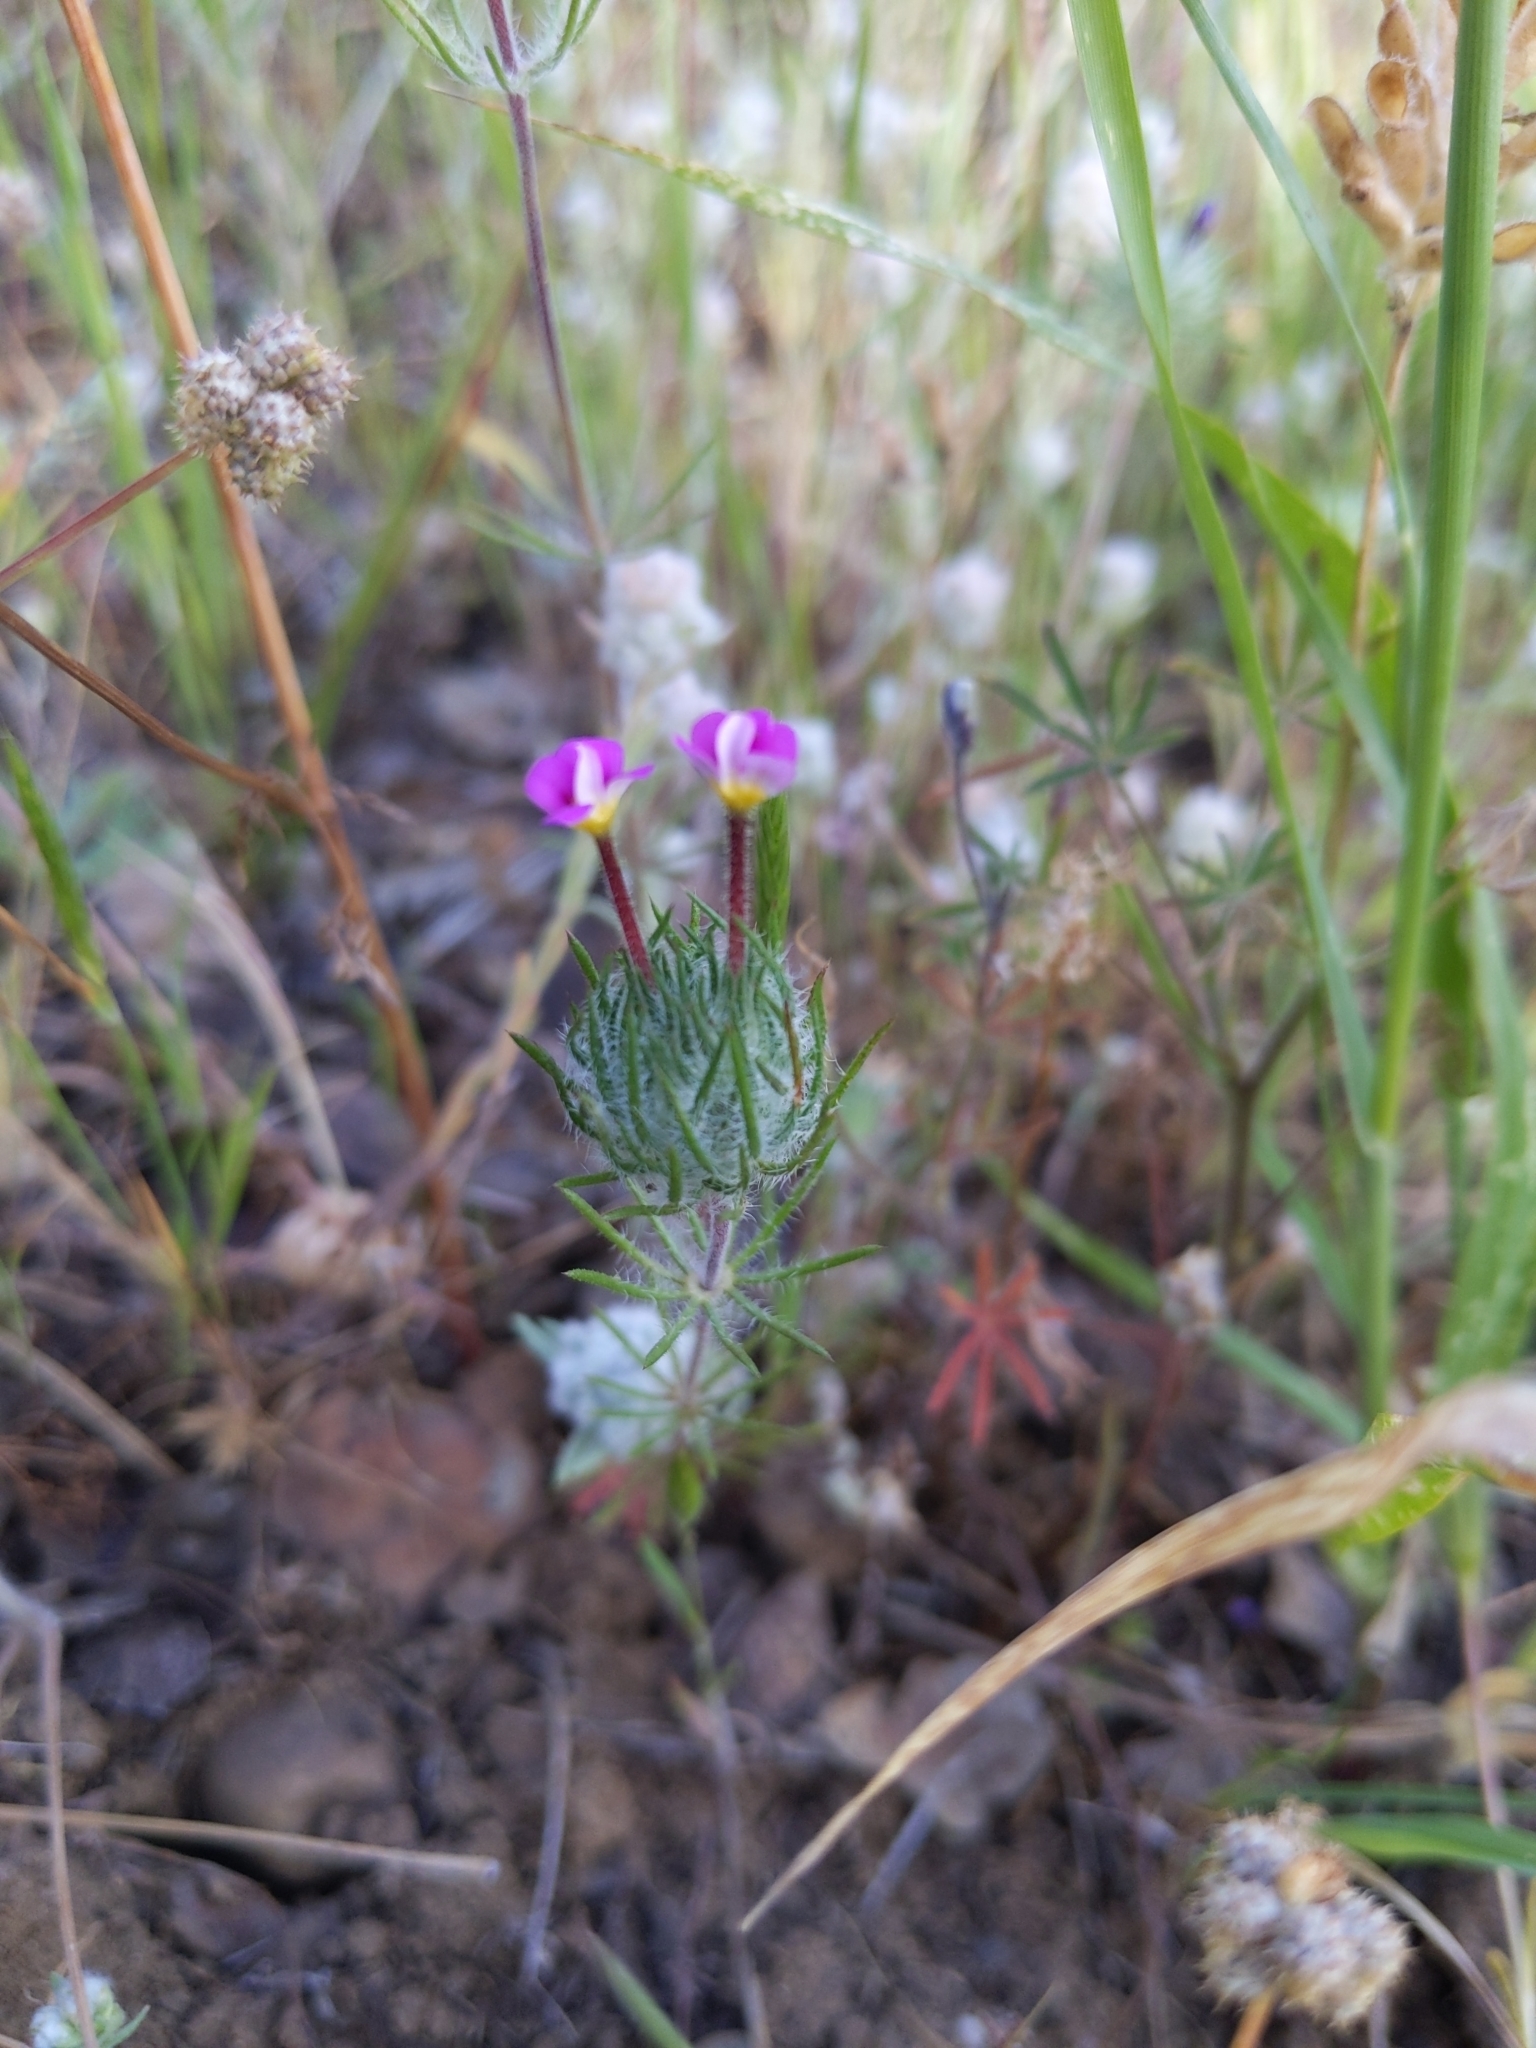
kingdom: Plantae
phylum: Tracheophyta
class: Magnoliopsida
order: Ericales
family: Polemoniaceae
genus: Leptosiphon
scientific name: Leptosiphon ciliatus
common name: Whiskerbrush
